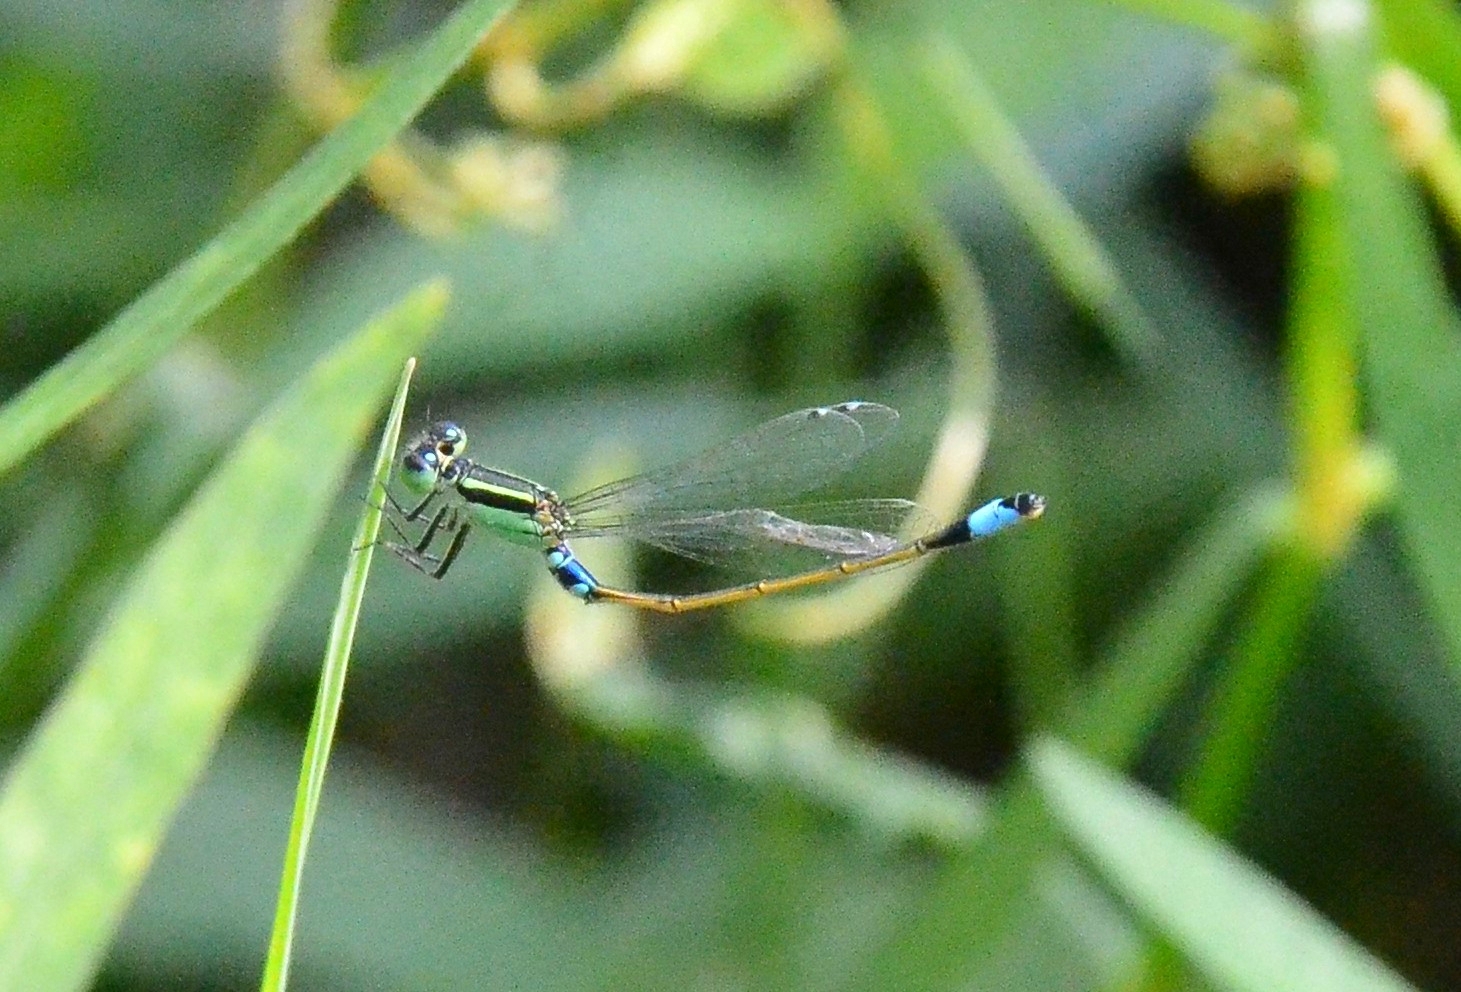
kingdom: Animalia
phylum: Arthropoda
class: Insecta
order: Odonata
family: Coenagrionidae
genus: Ischnura
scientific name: Ischnura senegalensis
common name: Tropical bluetail
